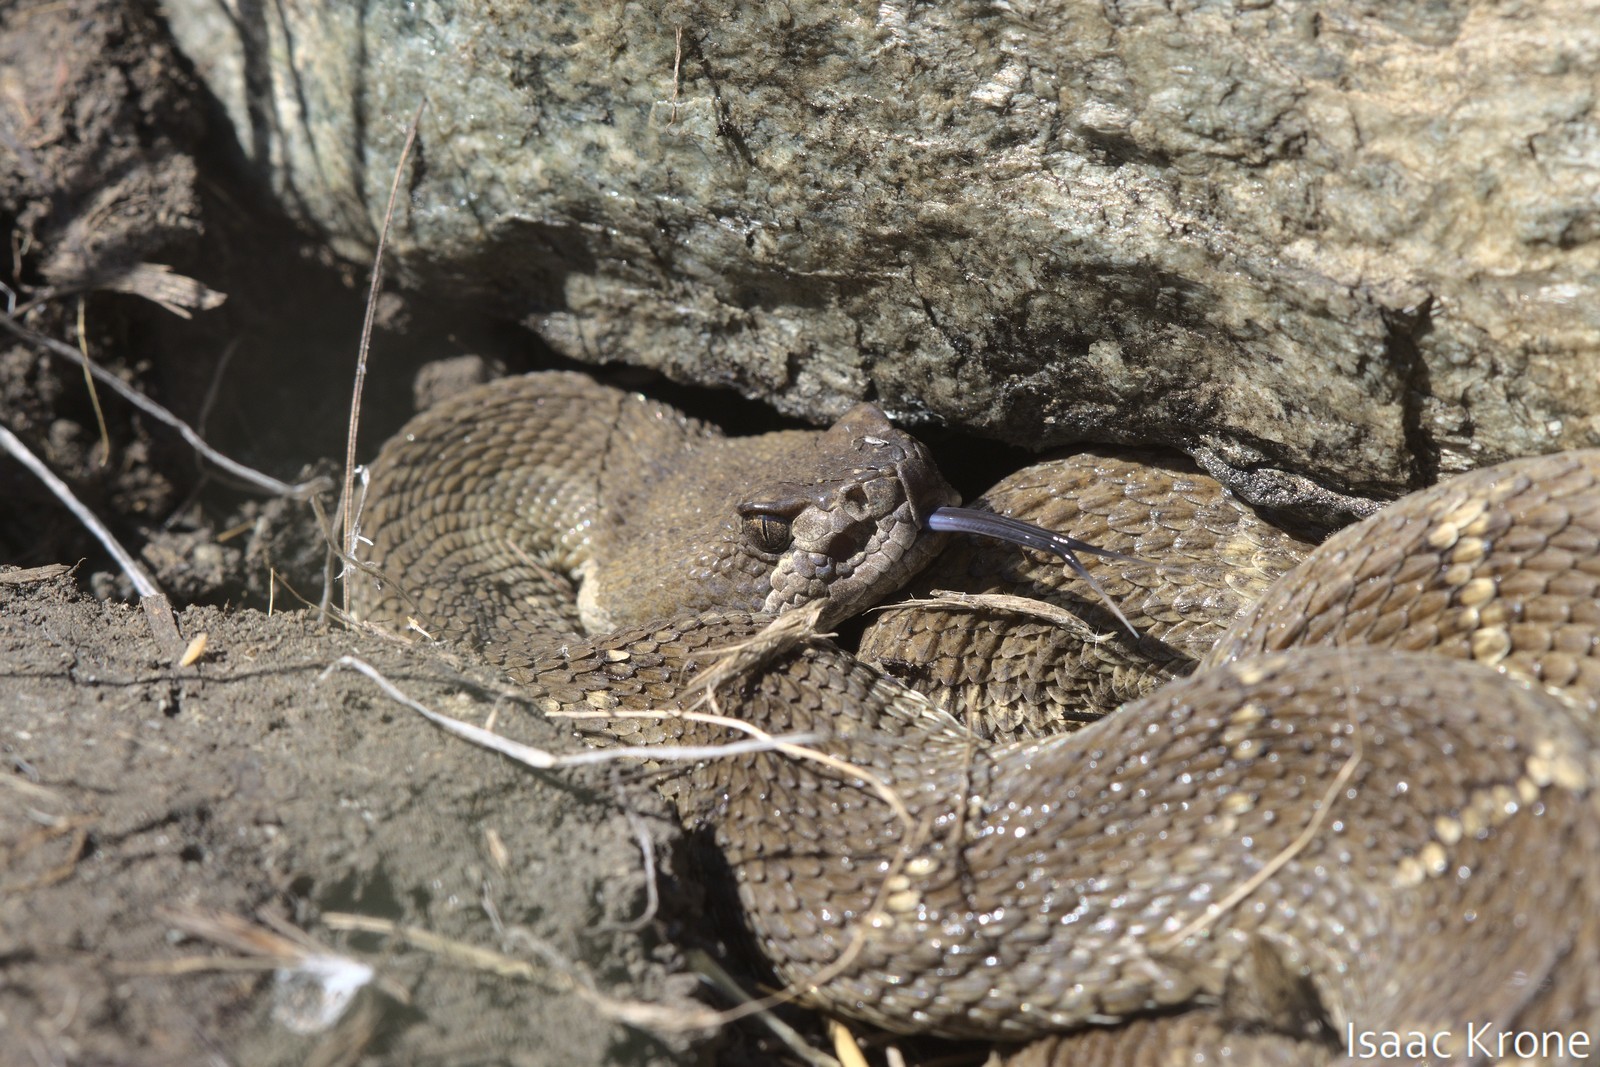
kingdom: Animalia
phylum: Chordata
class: Squamata
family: Viperidae
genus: Crotalus
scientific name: Crotalus oreganus
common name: Abyssus
